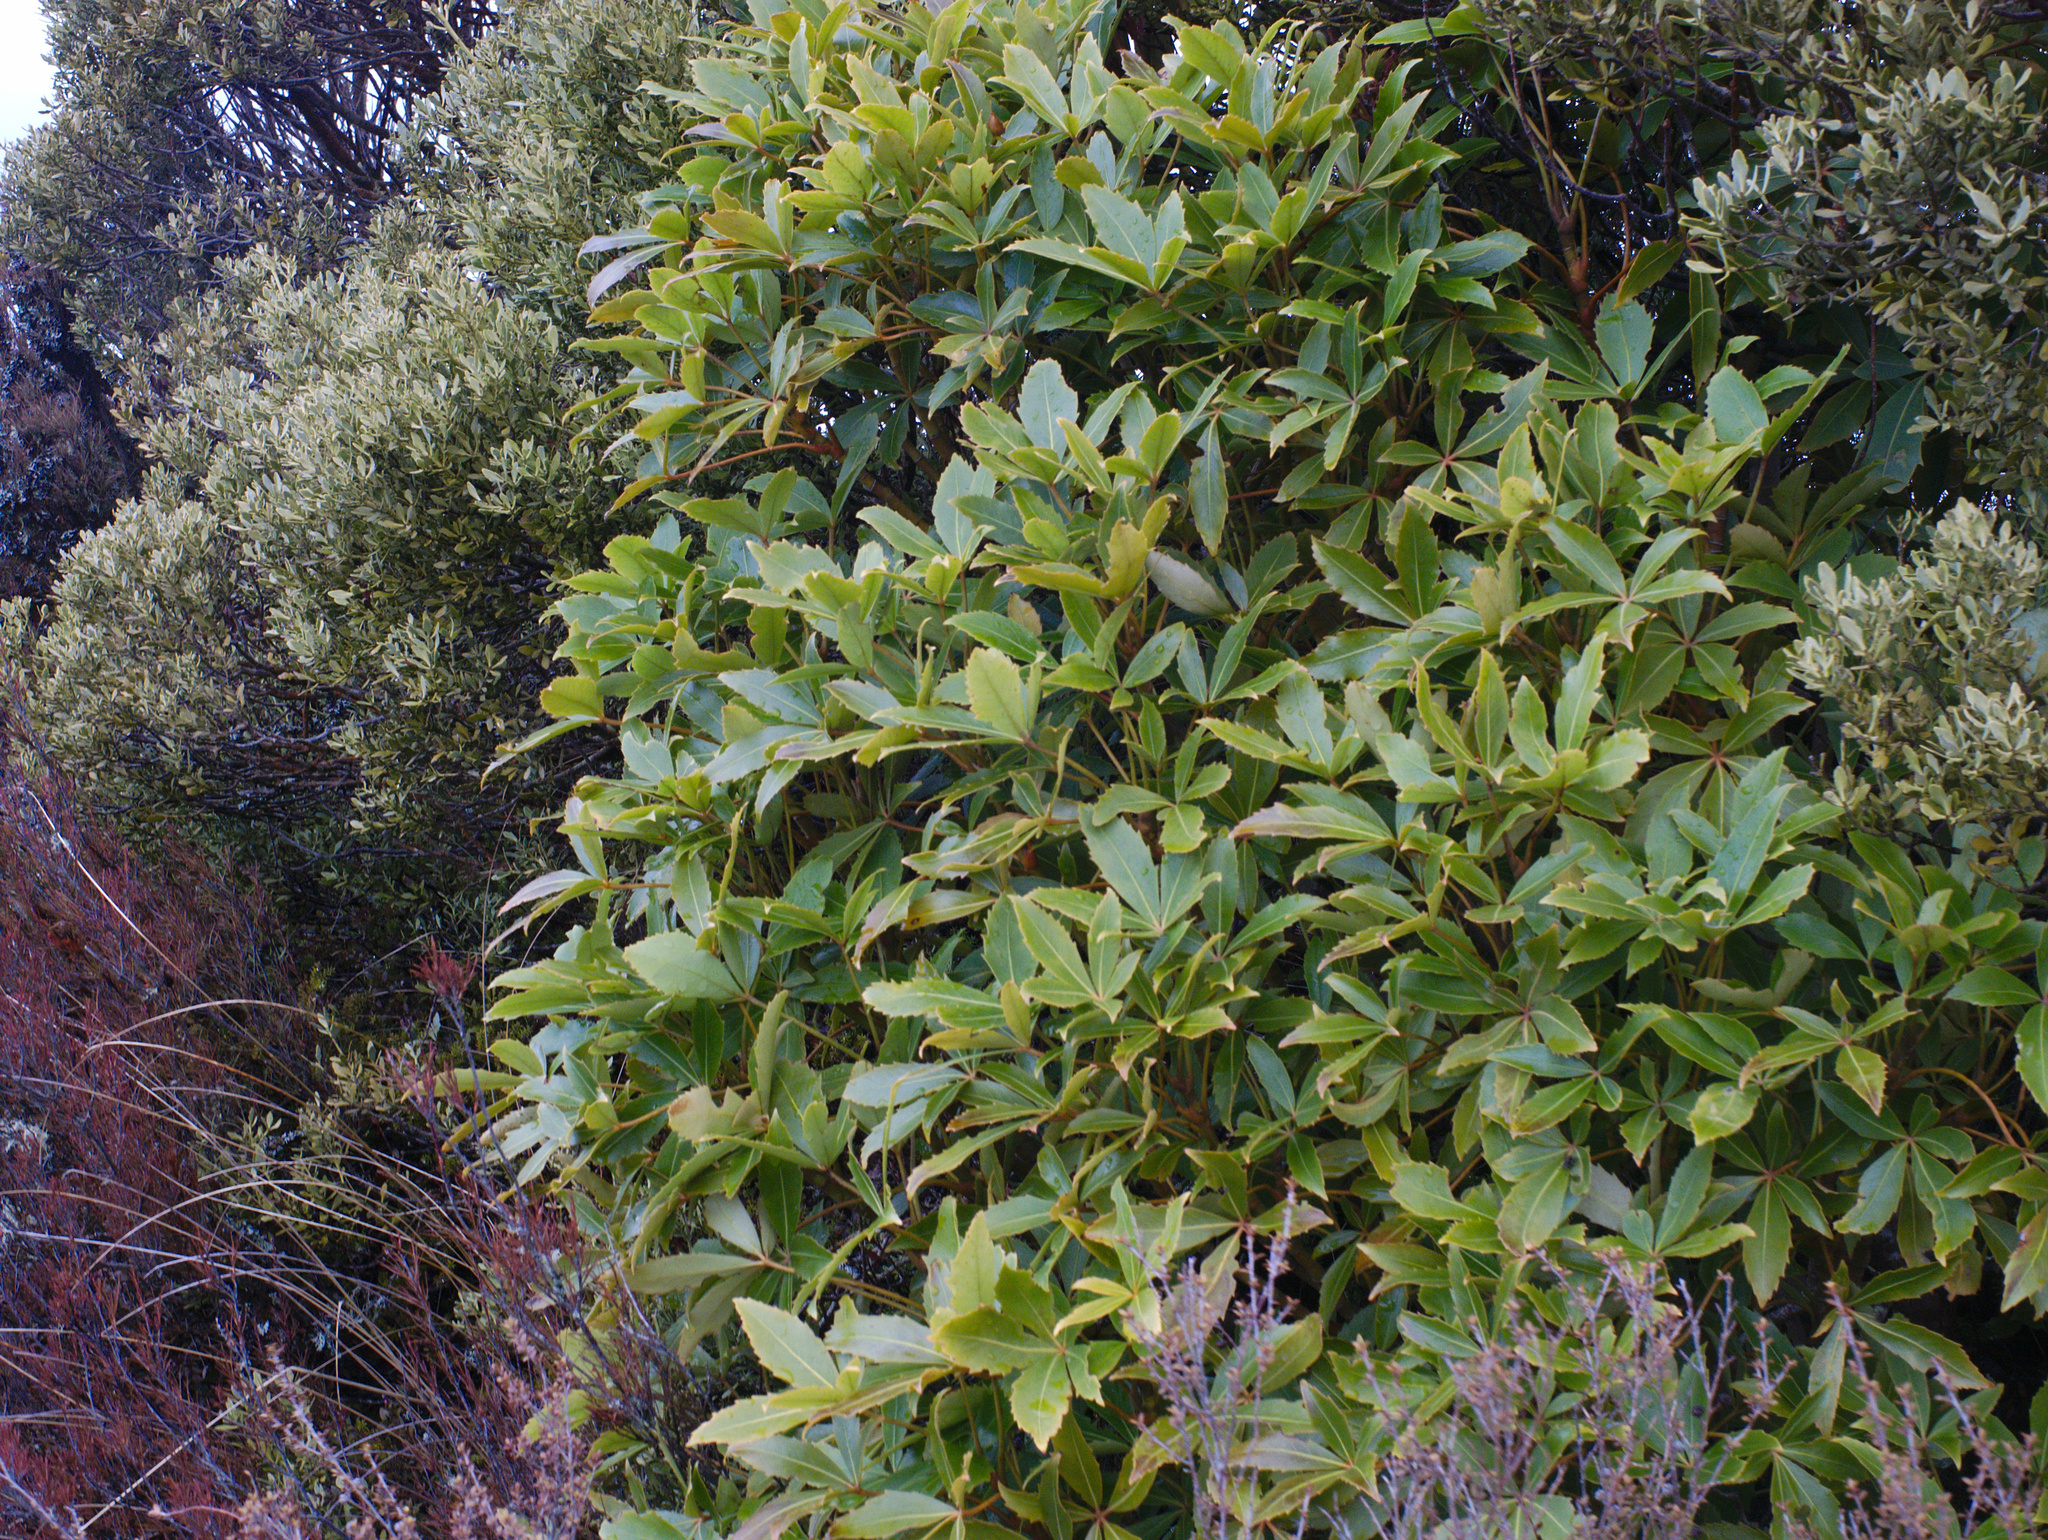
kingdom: Plantae
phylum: Tracheophyta
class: Magnoliopsida
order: Apiales
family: Araliaceae
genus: Neopanax
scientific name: Neopanax colensoi
